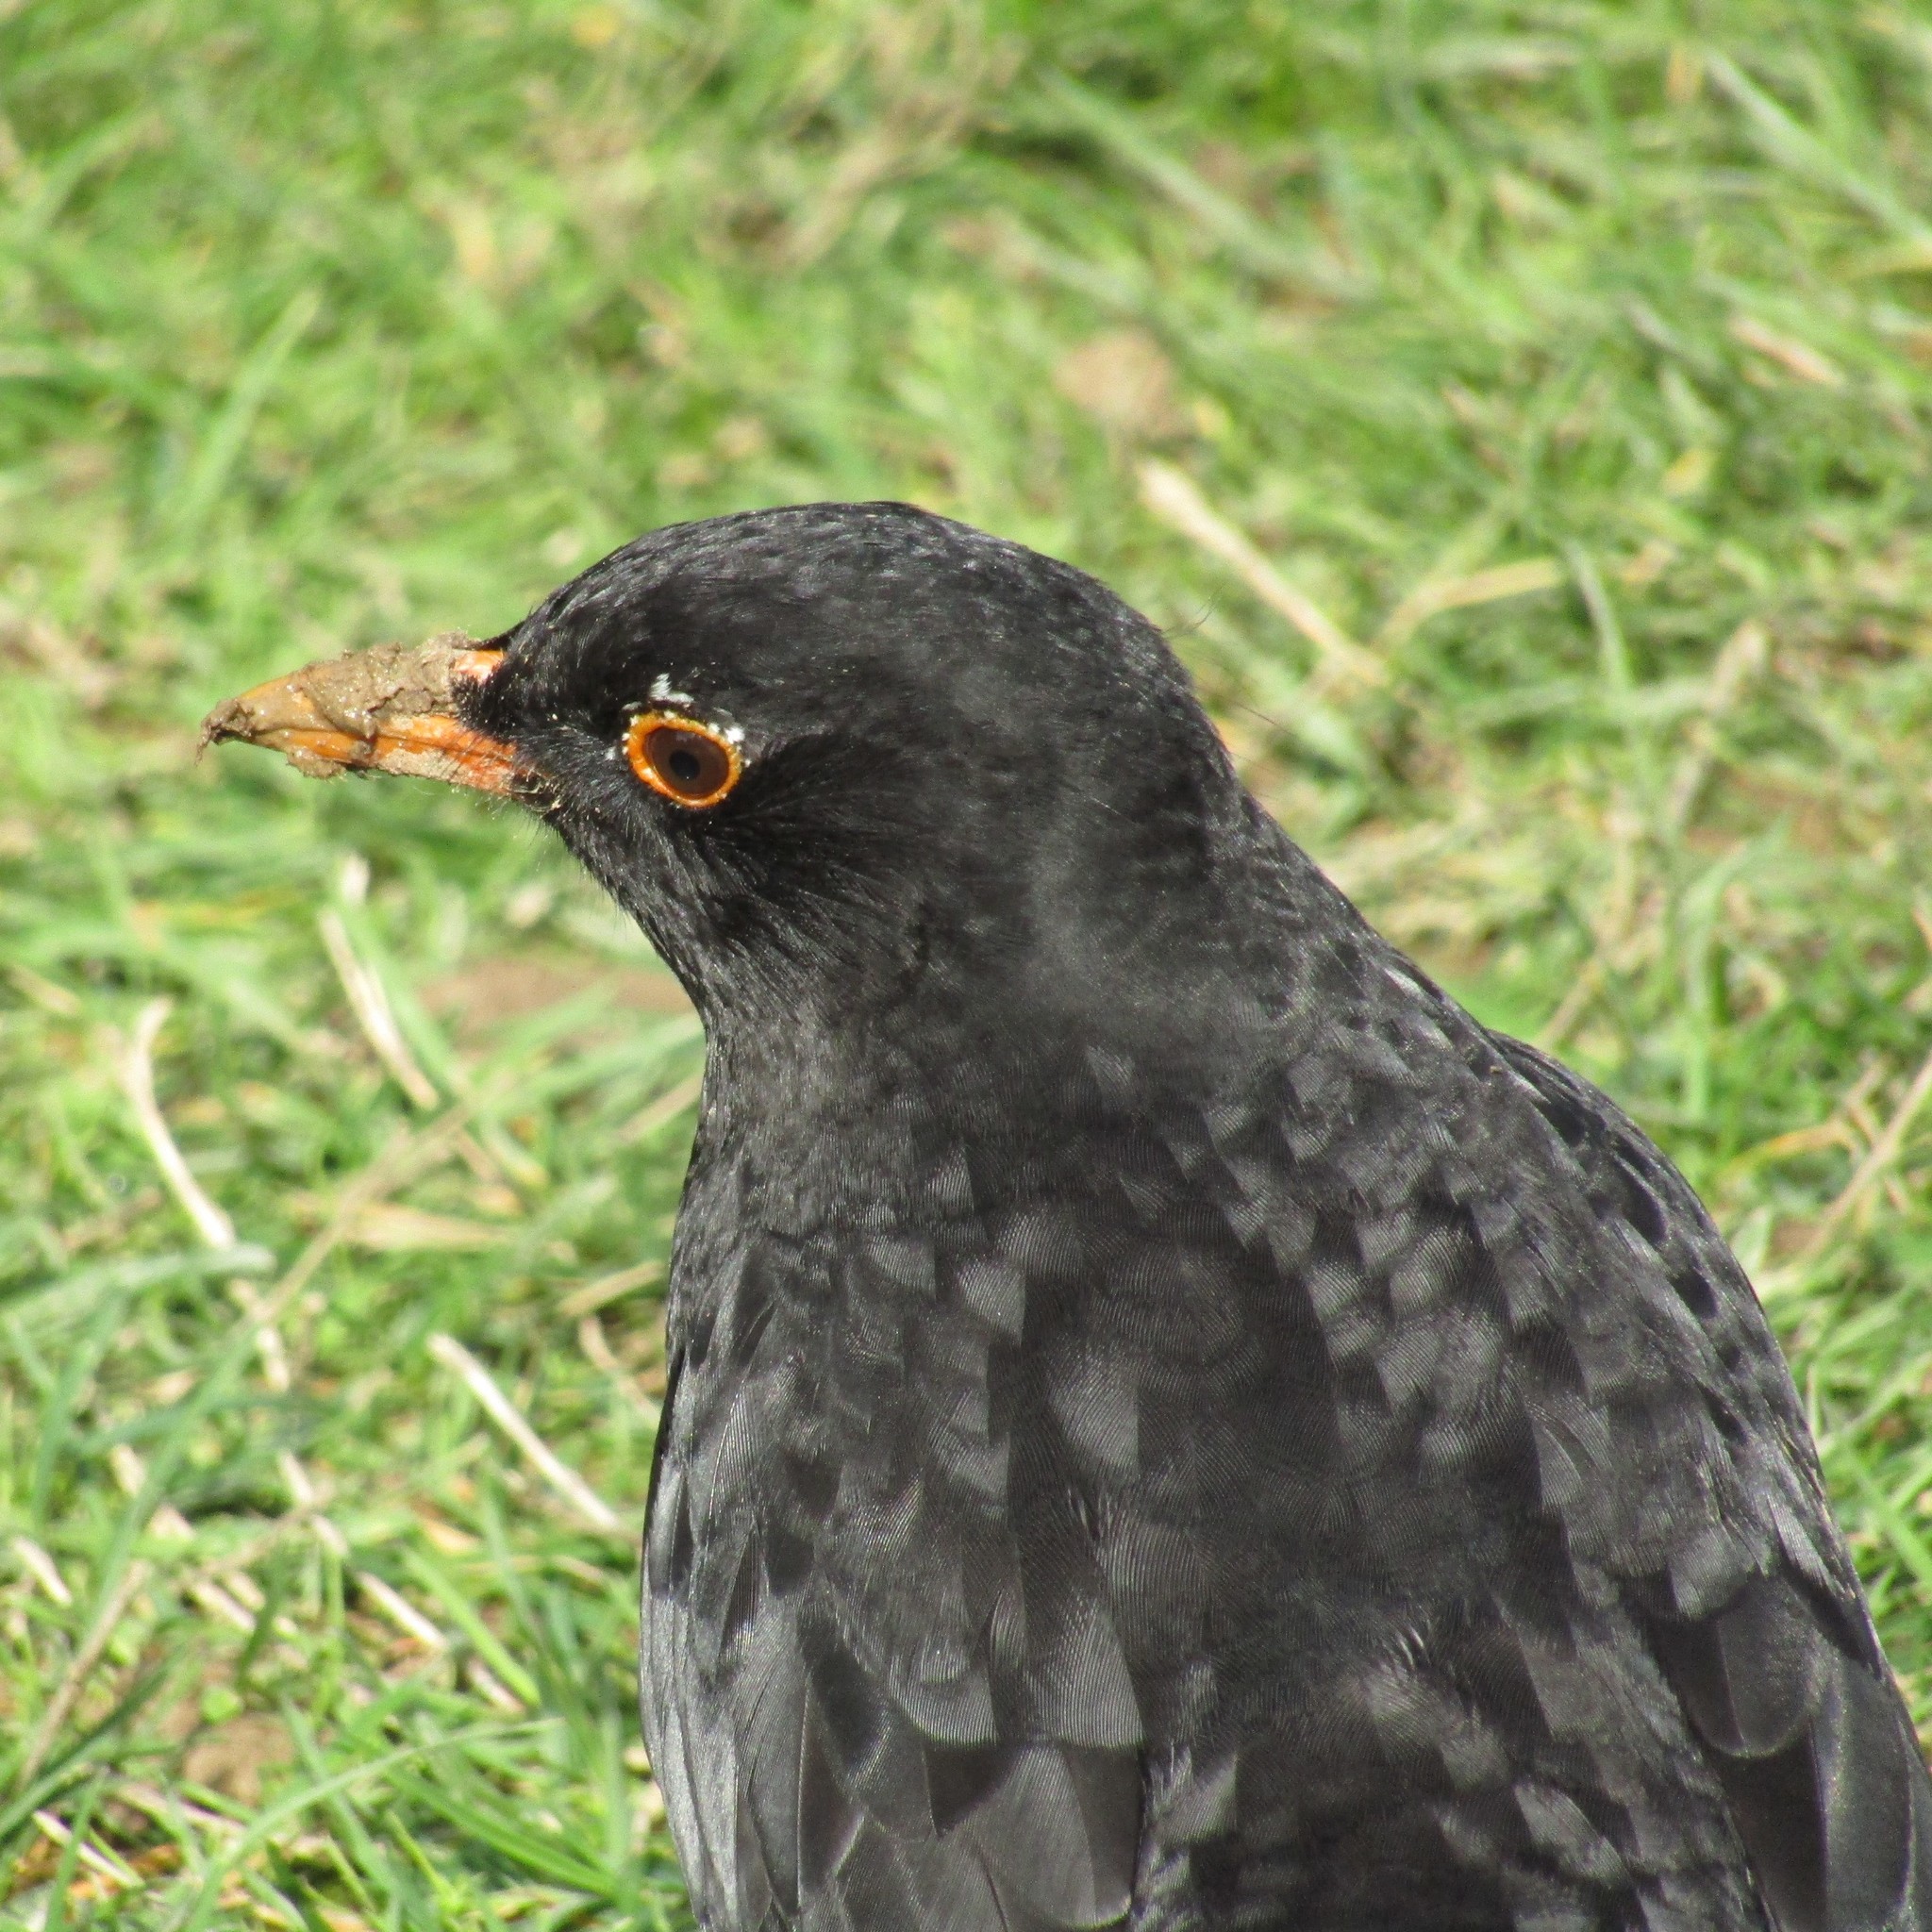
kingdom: Animalia
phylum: Chordata
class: Aves
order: Passeriformes
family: Turdidae
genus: Turdus
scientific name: Turdus merula
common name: Common blackbird
